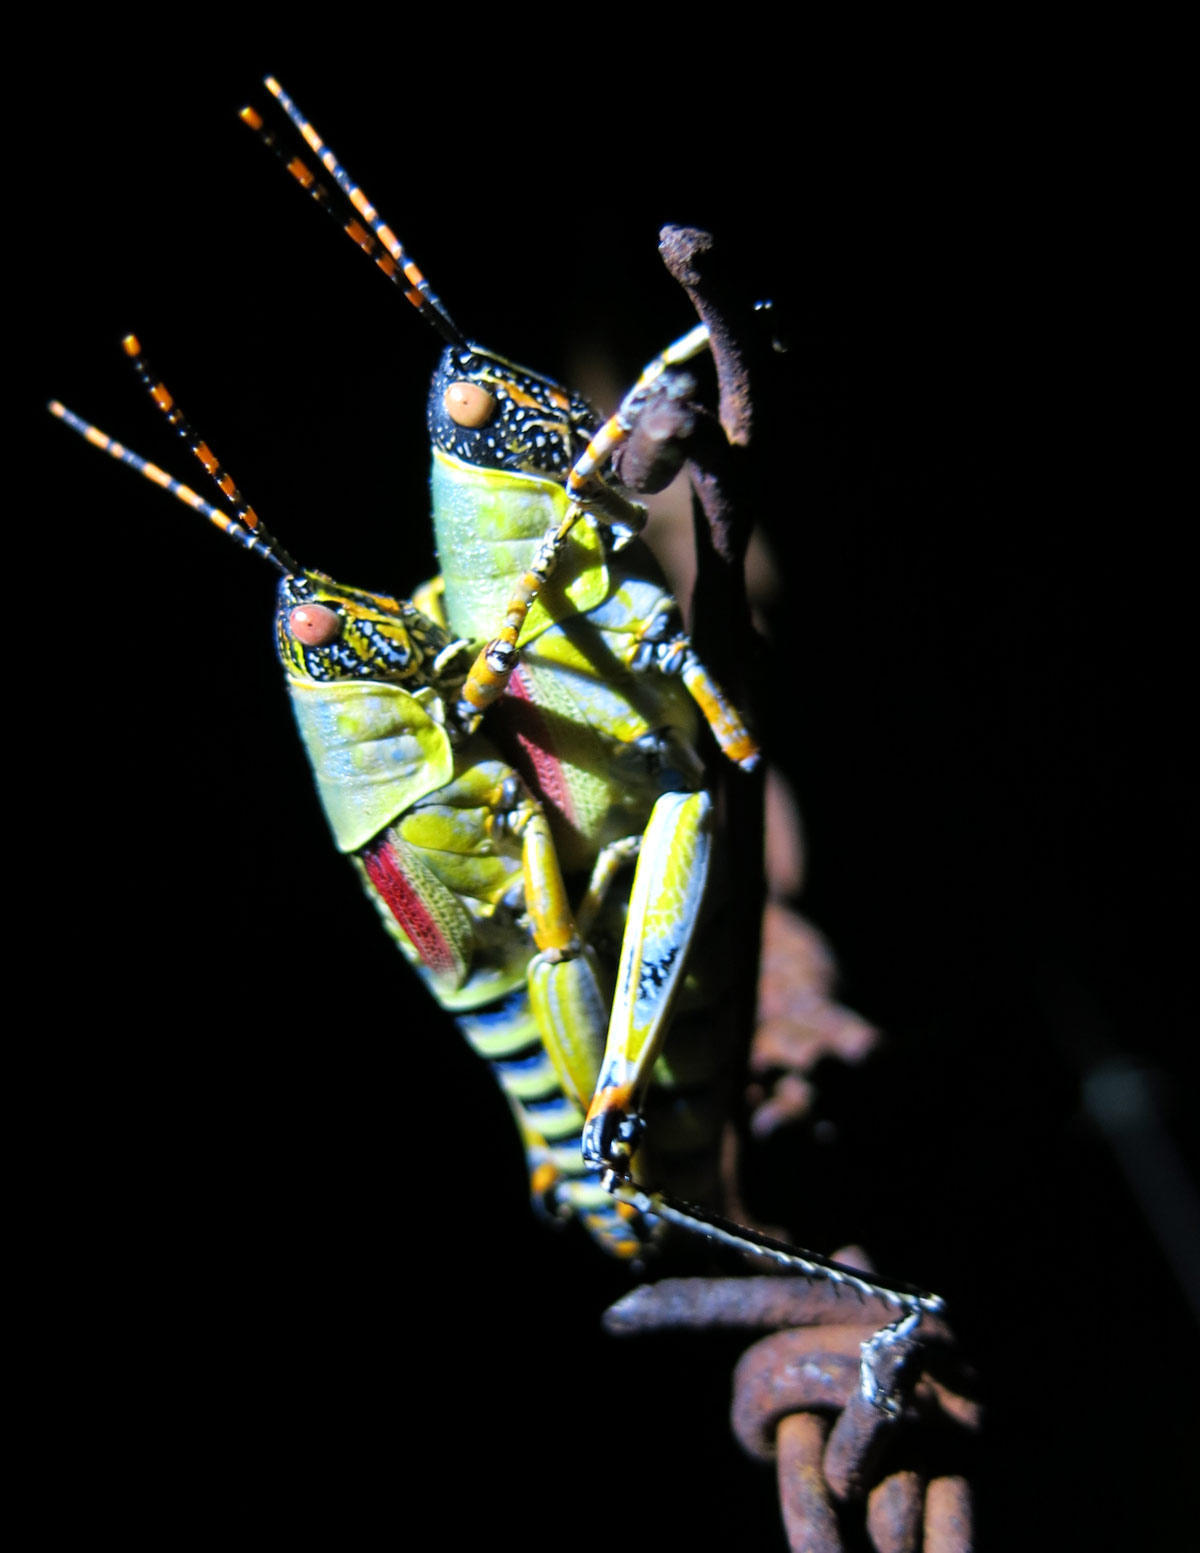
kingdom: Animalia
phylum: Arthropoda
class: Insecta
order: Orthoptera
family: Pyrgomorphidae
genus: Zonocerus
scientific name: Zonocerus elegans
